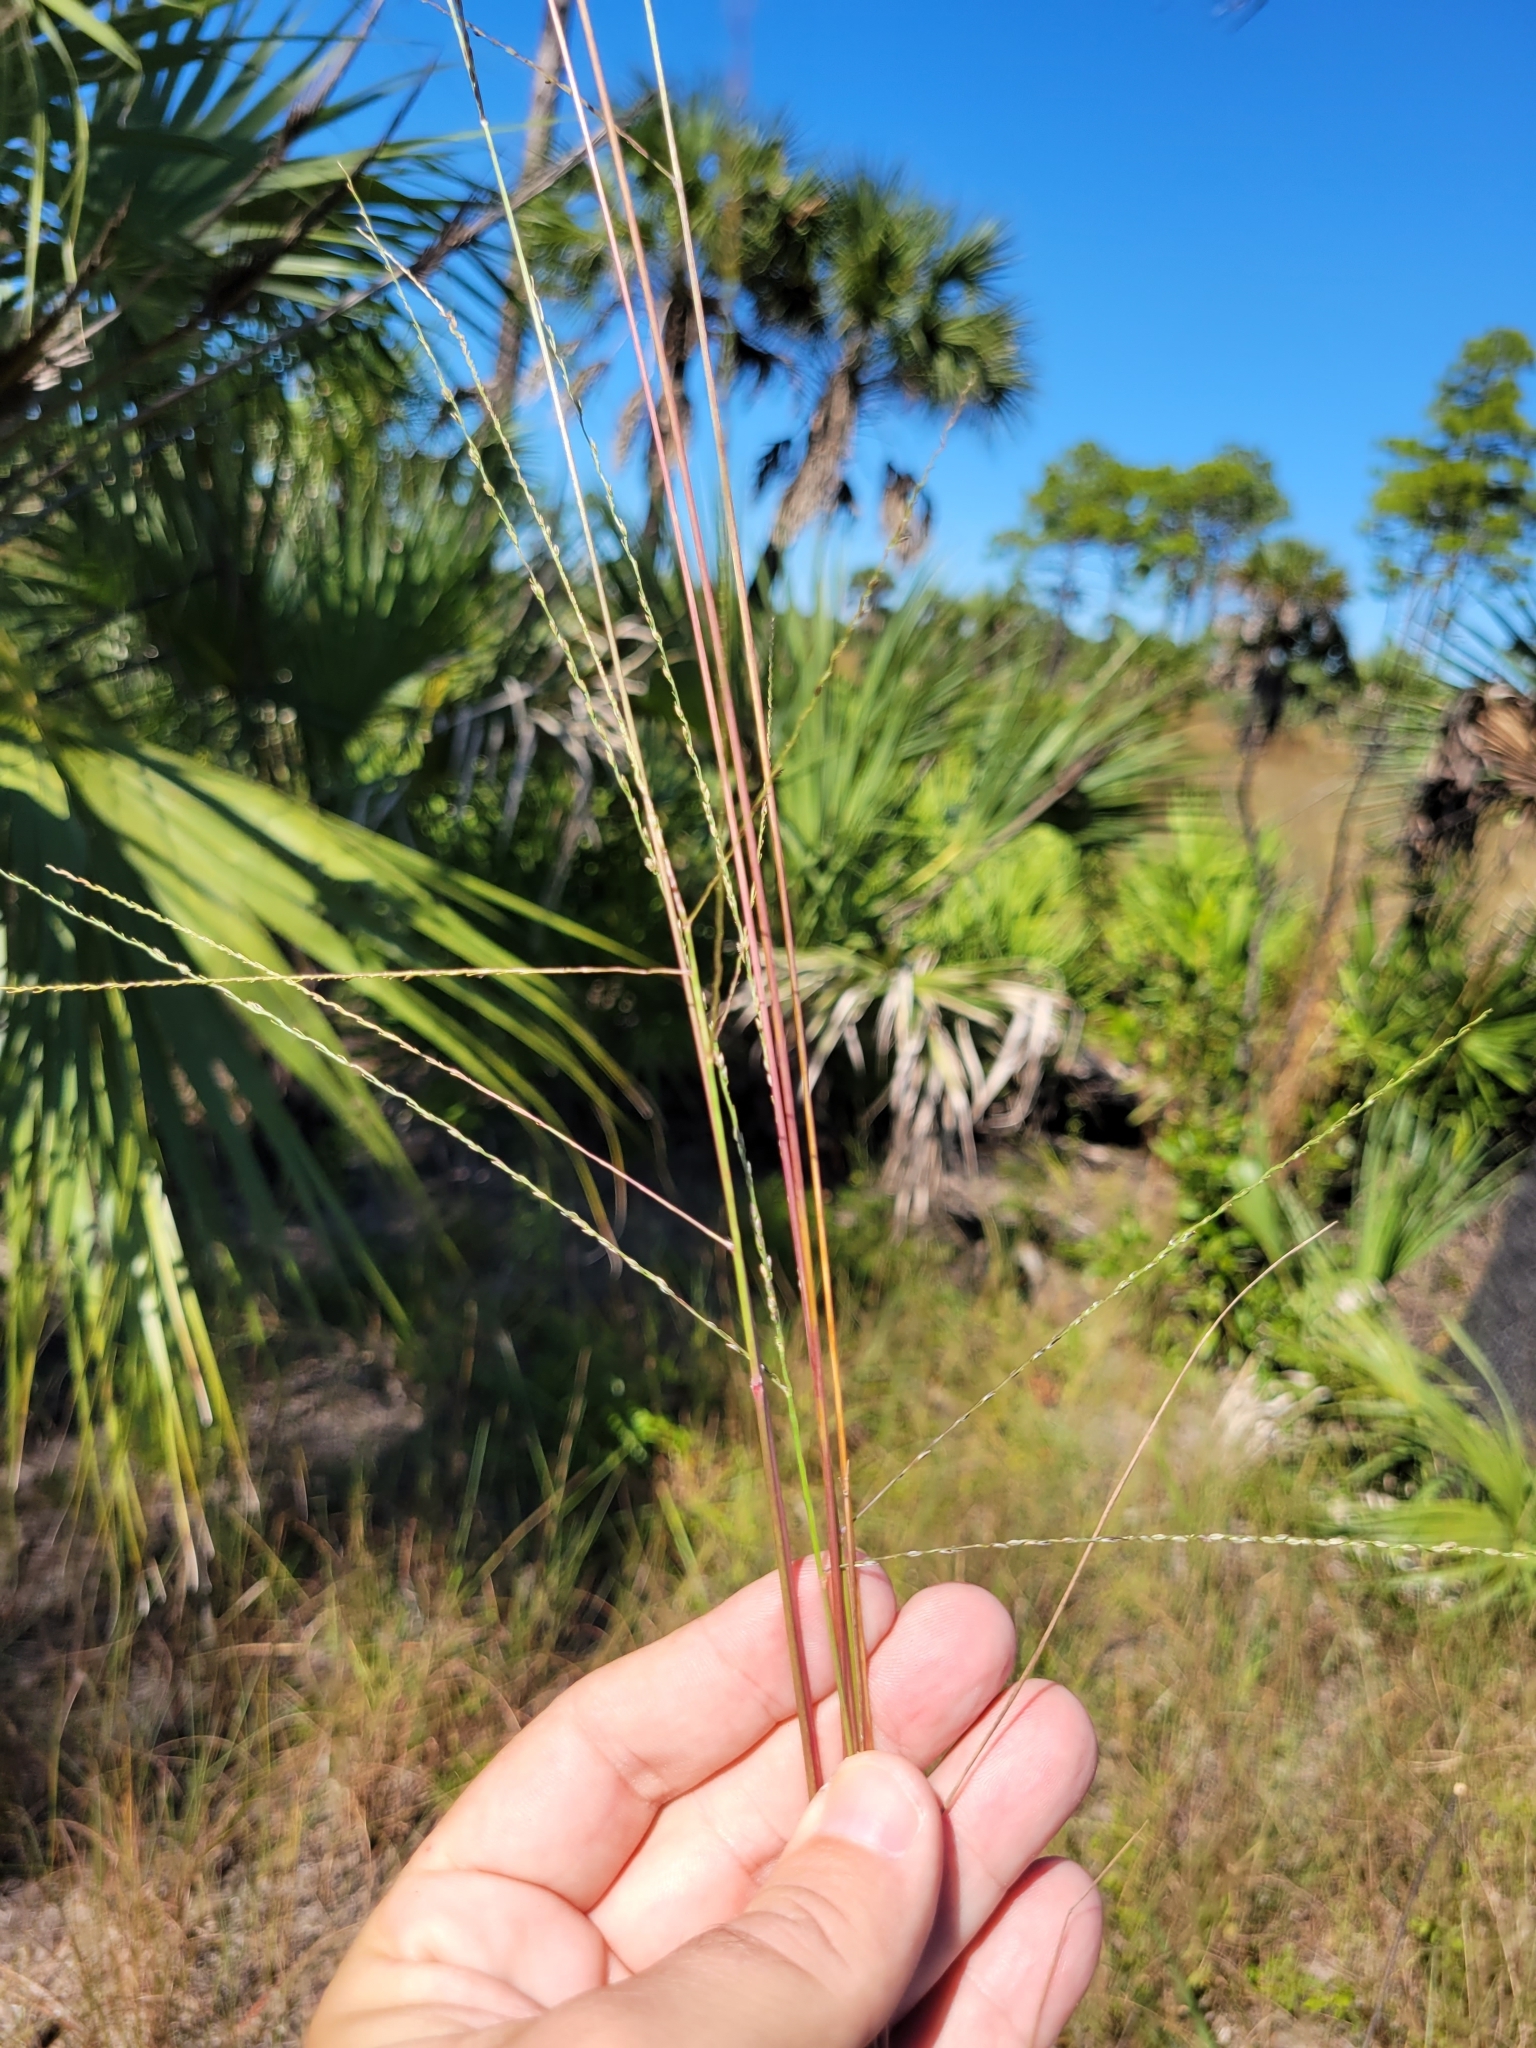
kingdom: Plantae
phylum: Tracheophyta
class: Liliopsida
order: Poales
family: Poaceae
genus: Digitaria
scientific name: Digitaria villosa
